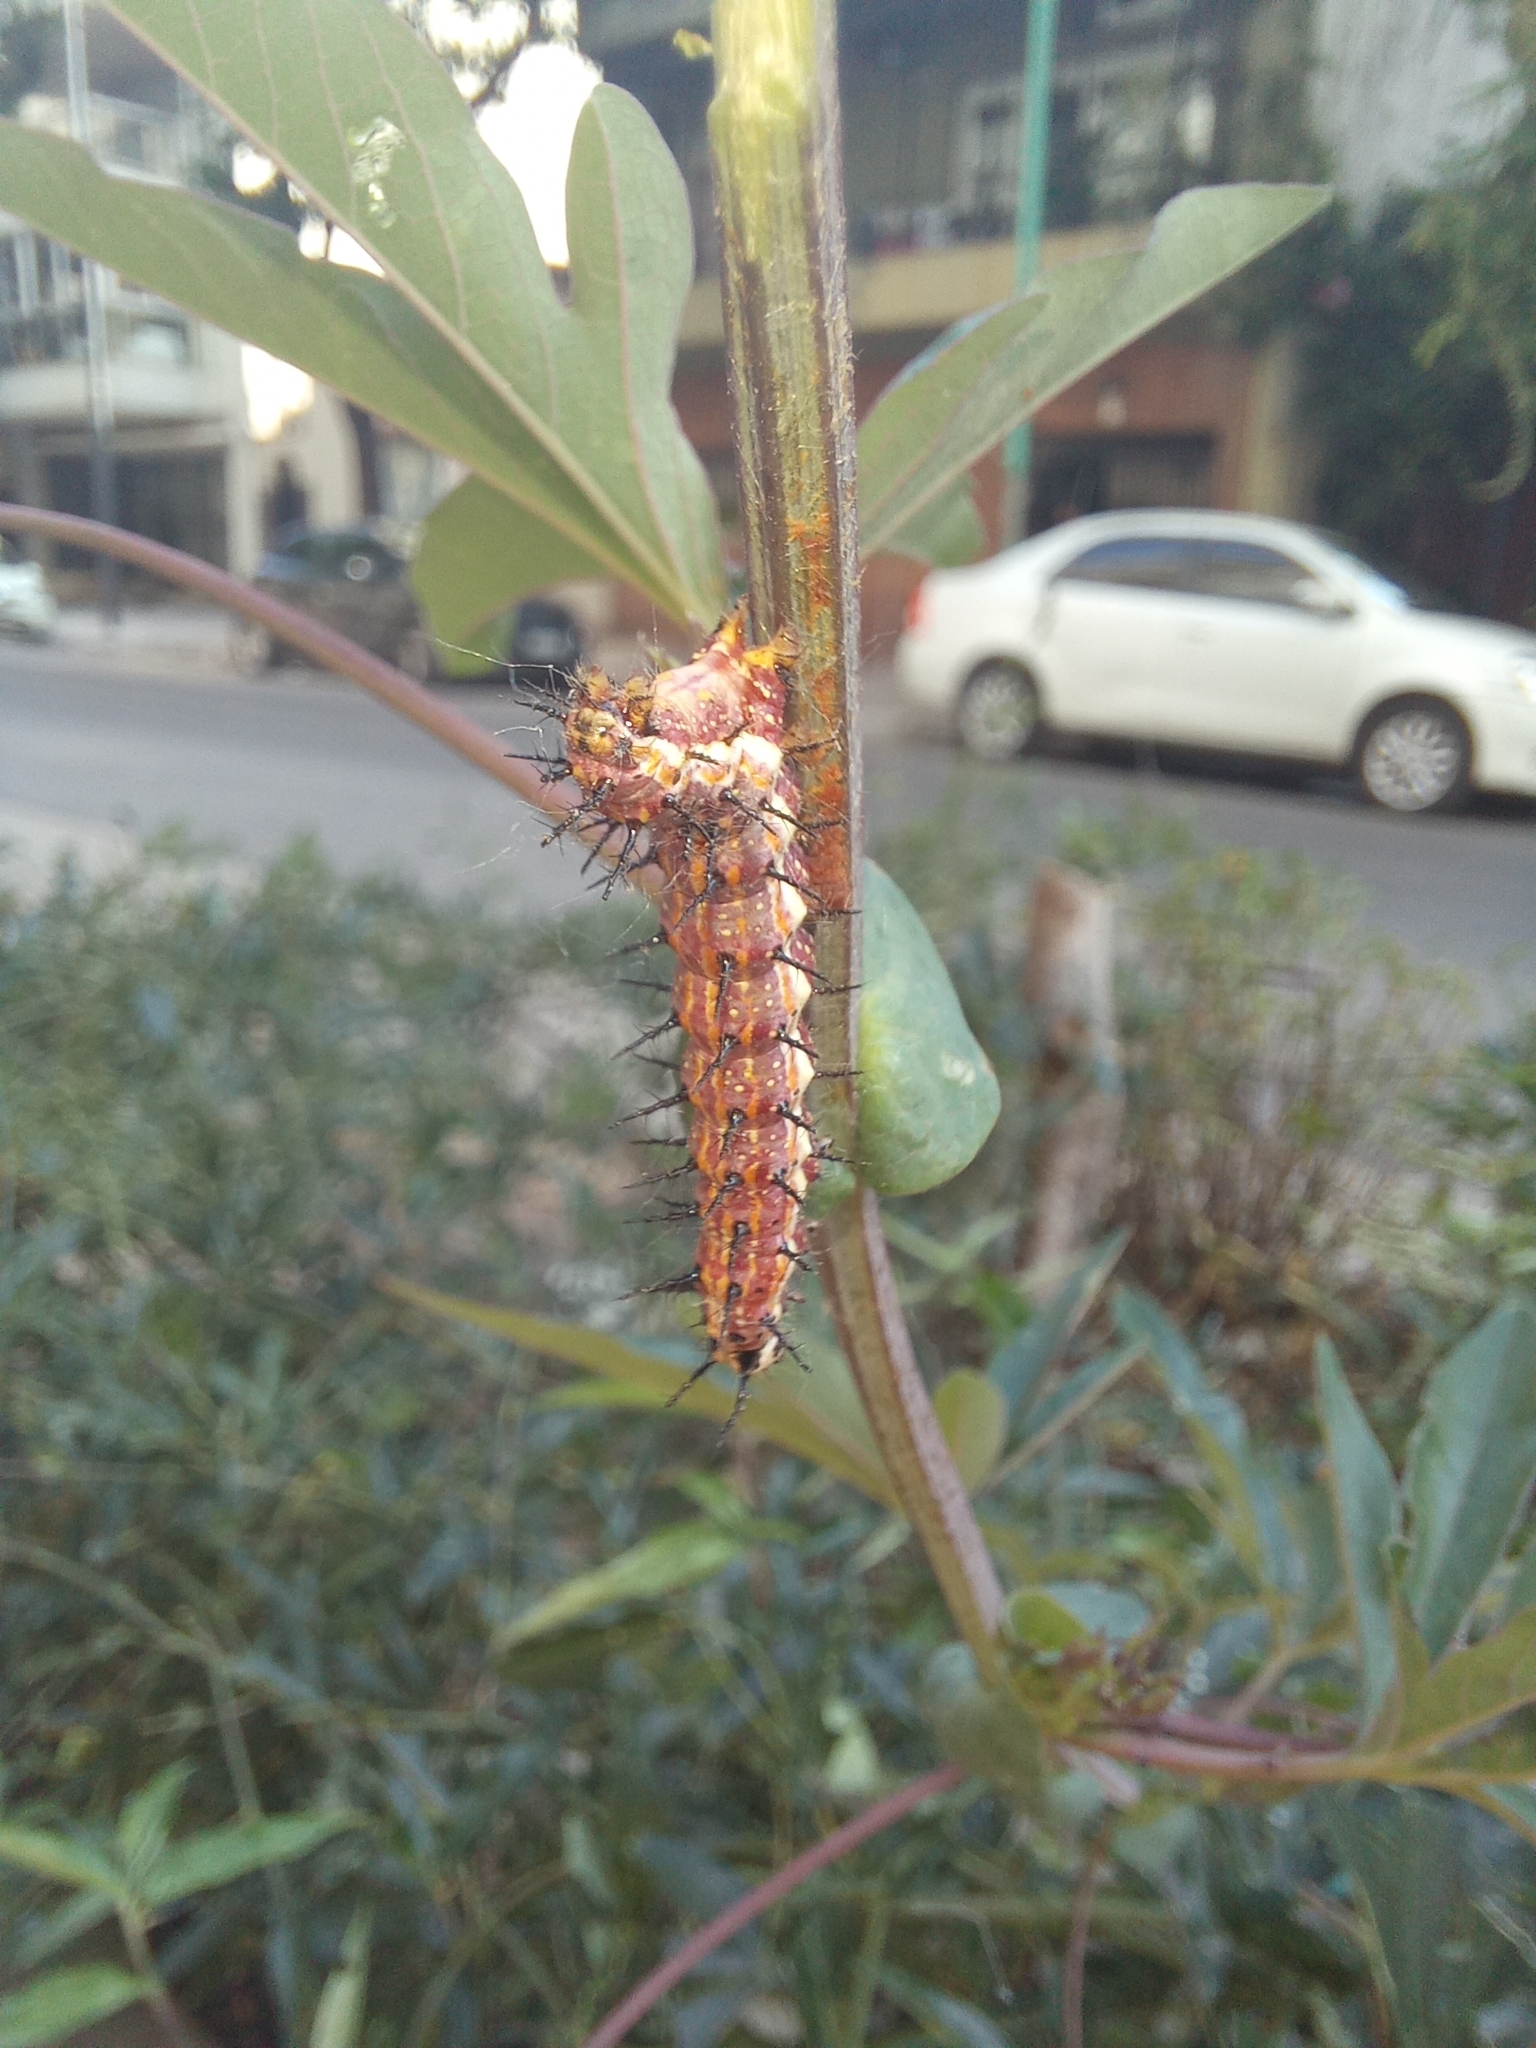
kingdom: Animalia
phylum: Arthropoda
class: Insecta
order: Lepidoptera
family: Nymphalidae
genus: Dione
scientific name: Dione vanillae
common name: Gulf fritillary
